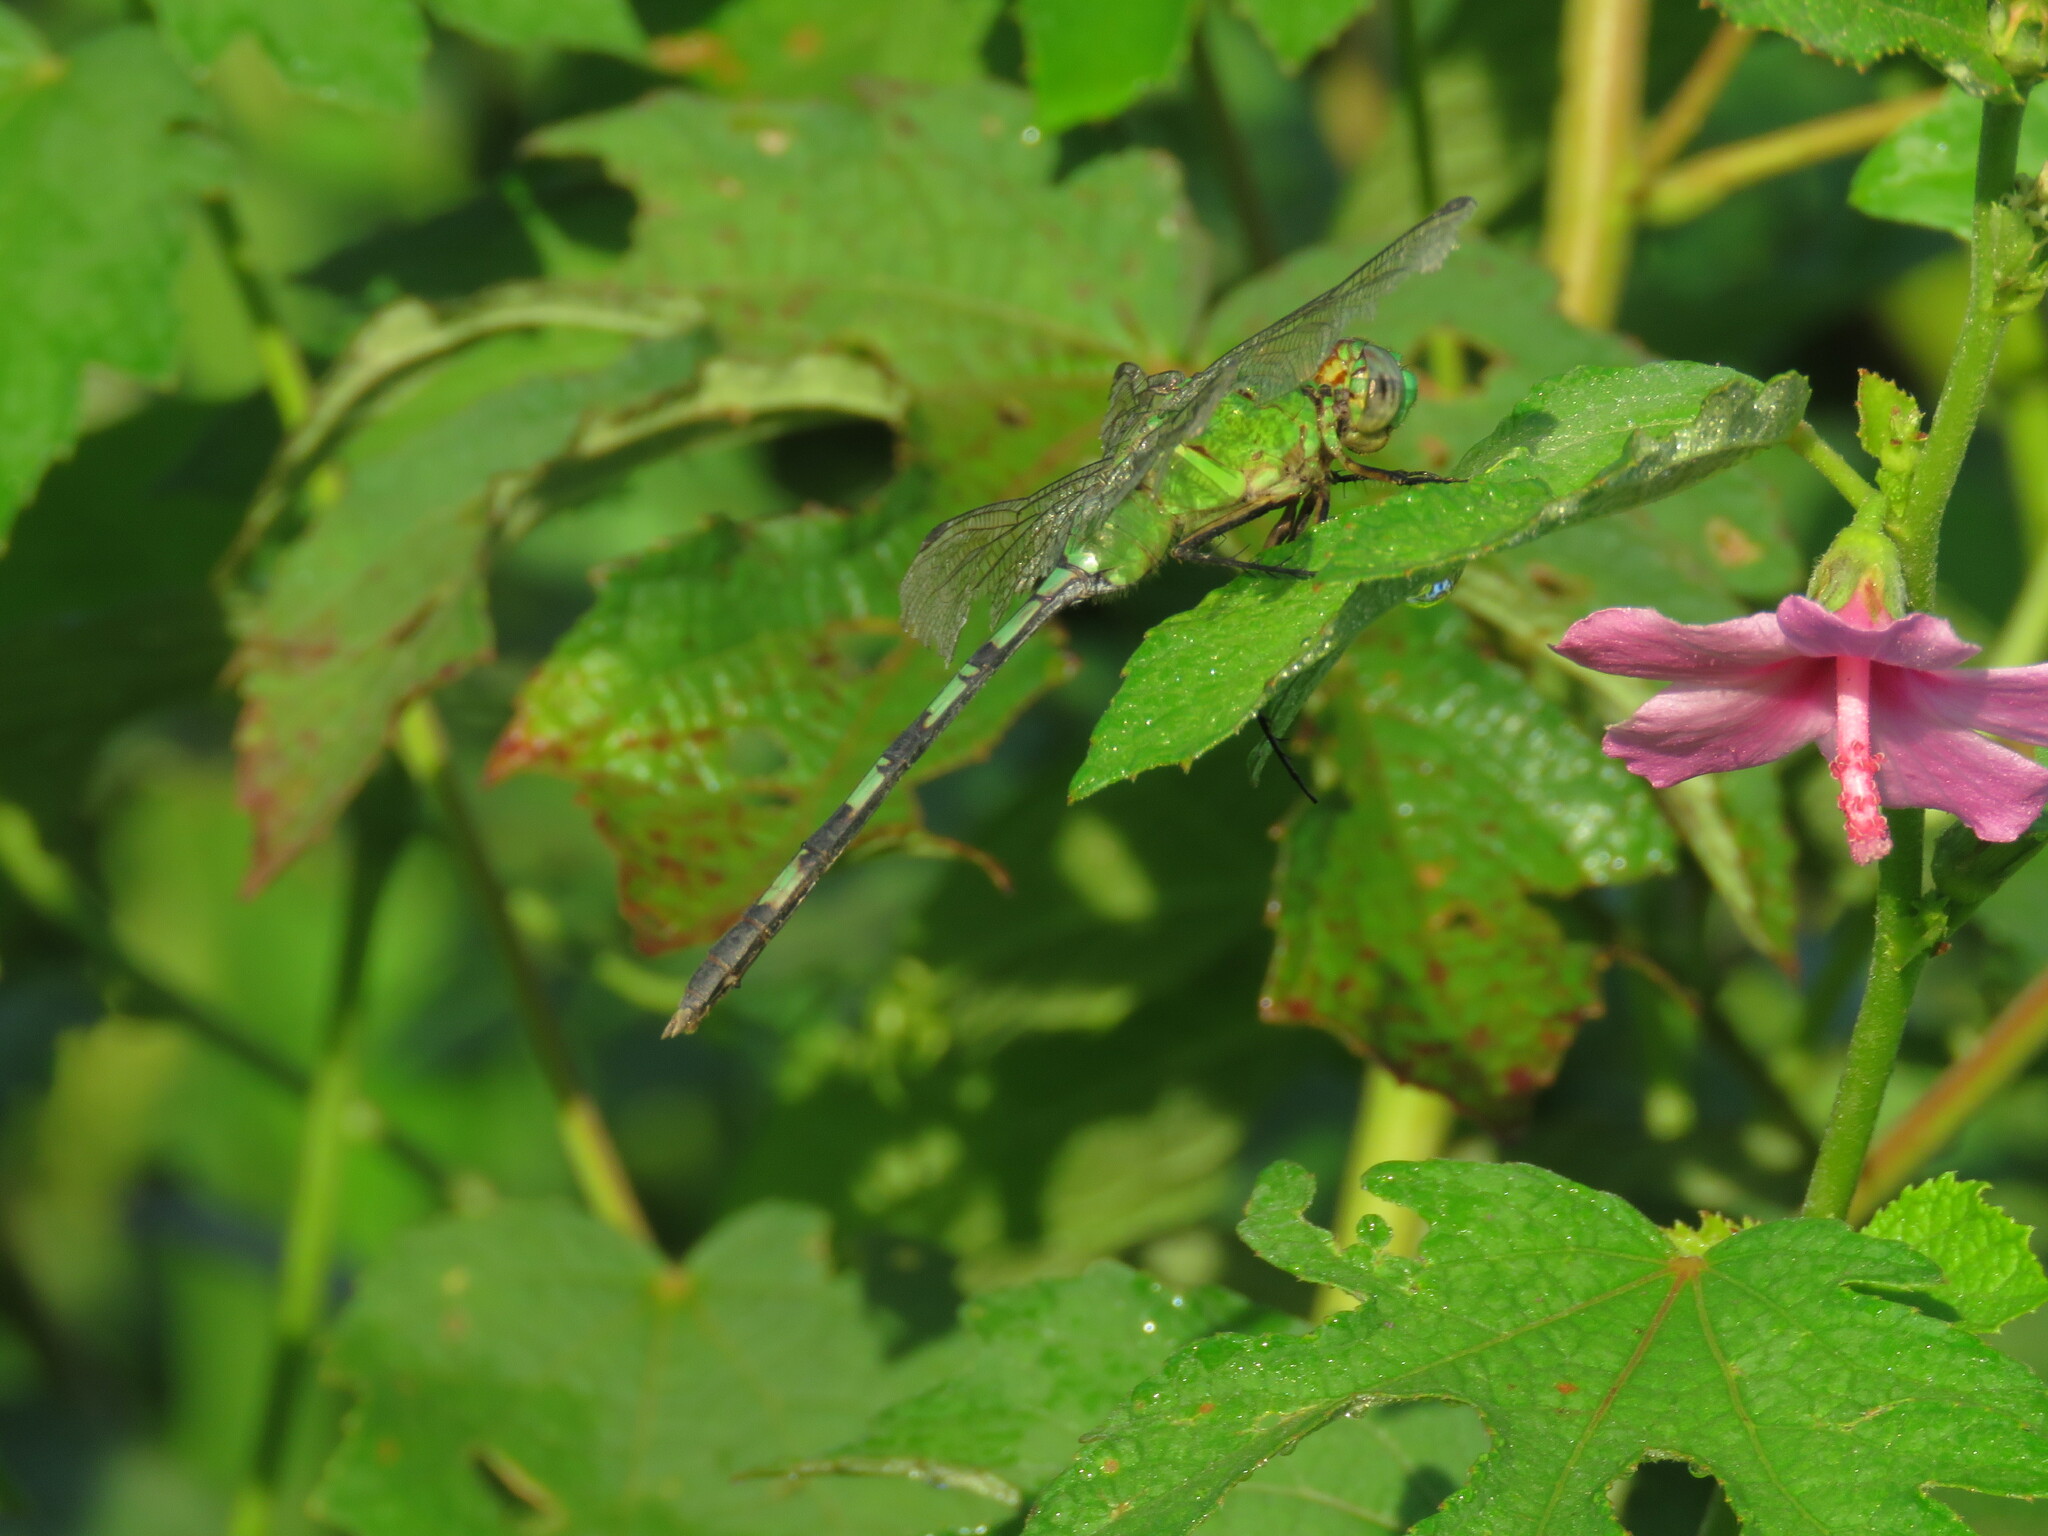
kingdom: Animalia
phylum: Arthropoda
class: Insecta
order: Odonata
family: Libellulidae
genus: Erythemis
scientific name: Erythemis vesiculosa
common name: Great pondhawk
